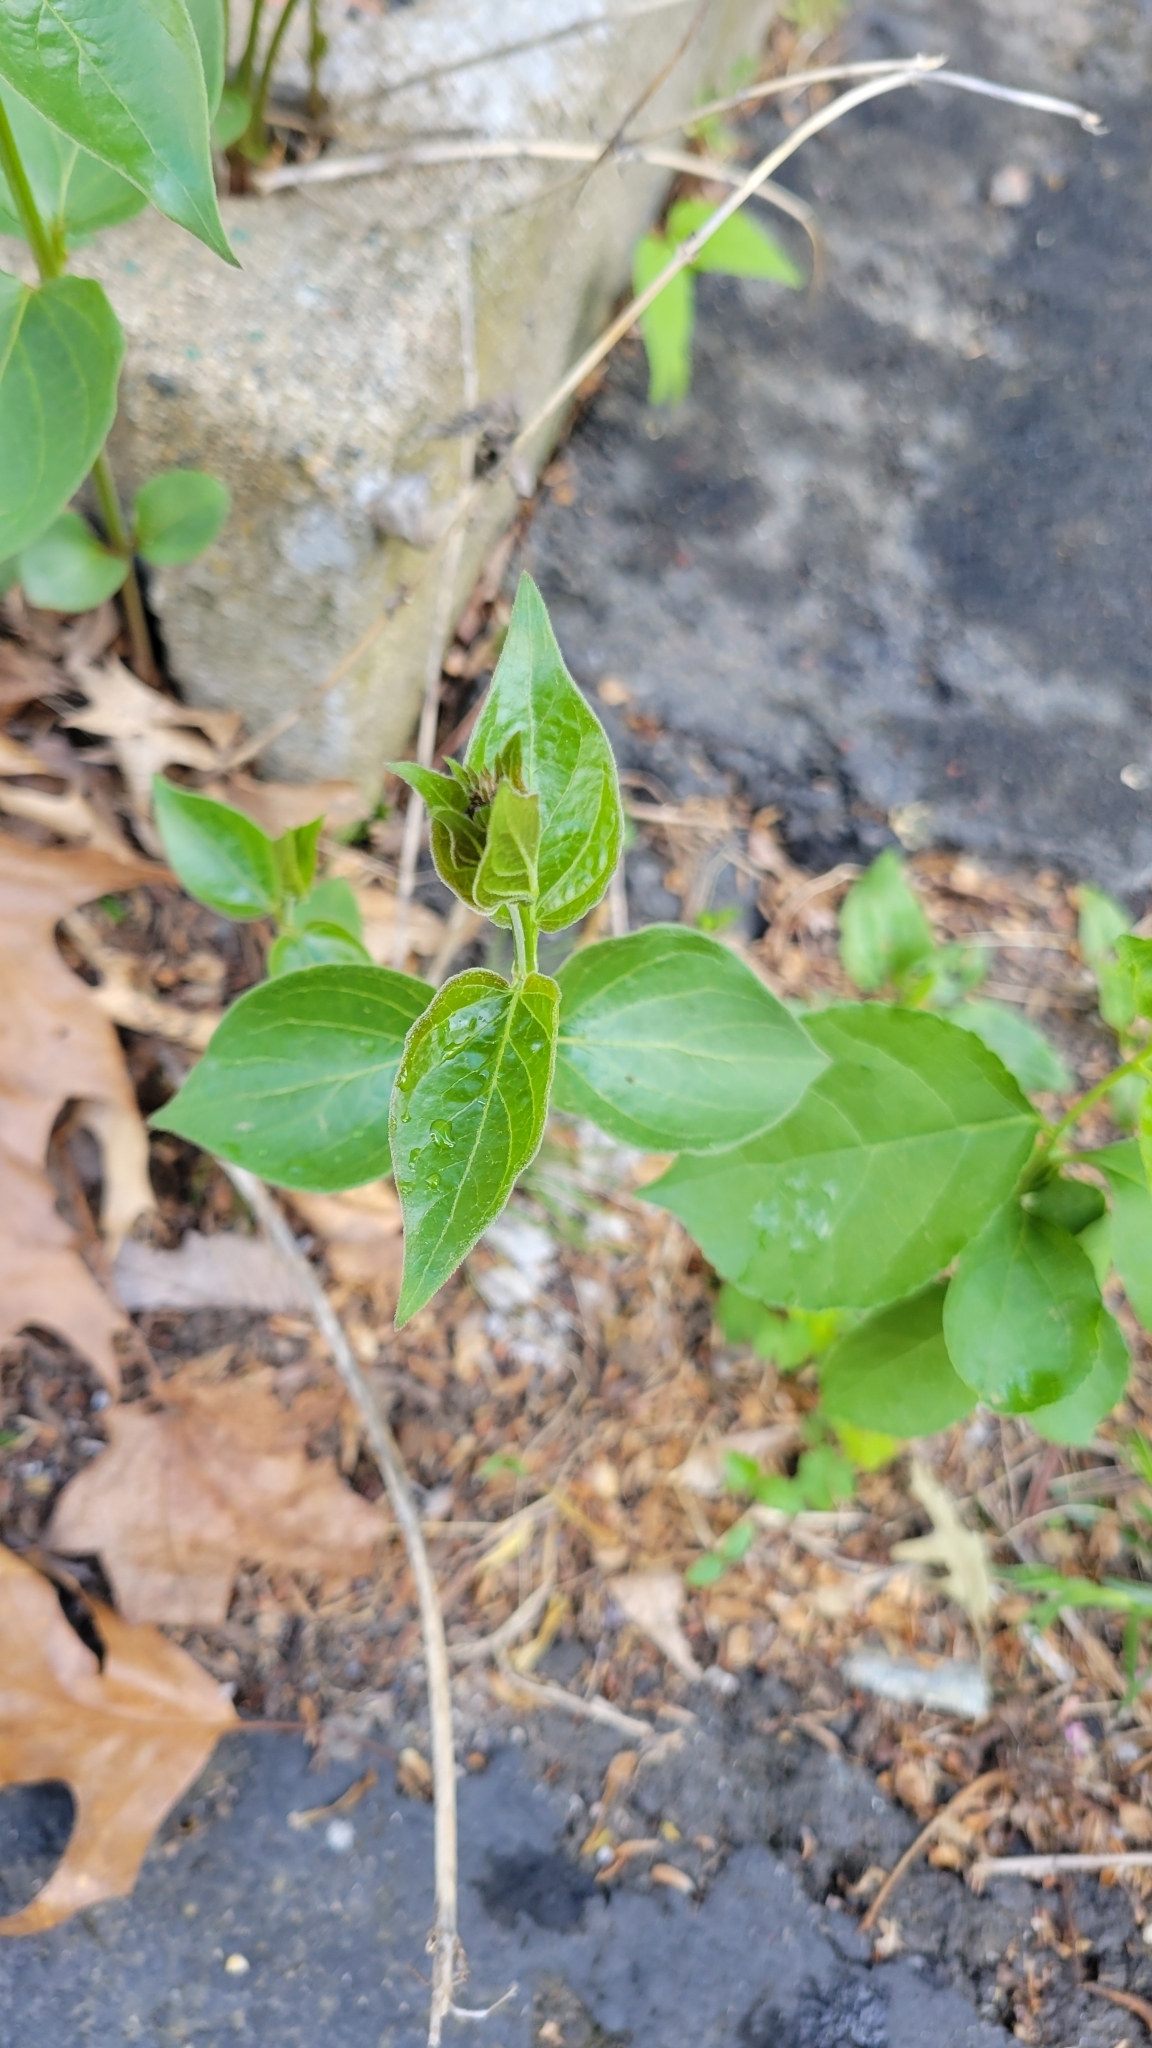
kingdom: Plantae
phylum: Tracheophyta
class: Magnoliopsida
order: Gentianales
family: Apocynaceae
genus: Vincetoxicum
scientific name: Vincetoxicum nigrum
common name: Black swallow-wort
